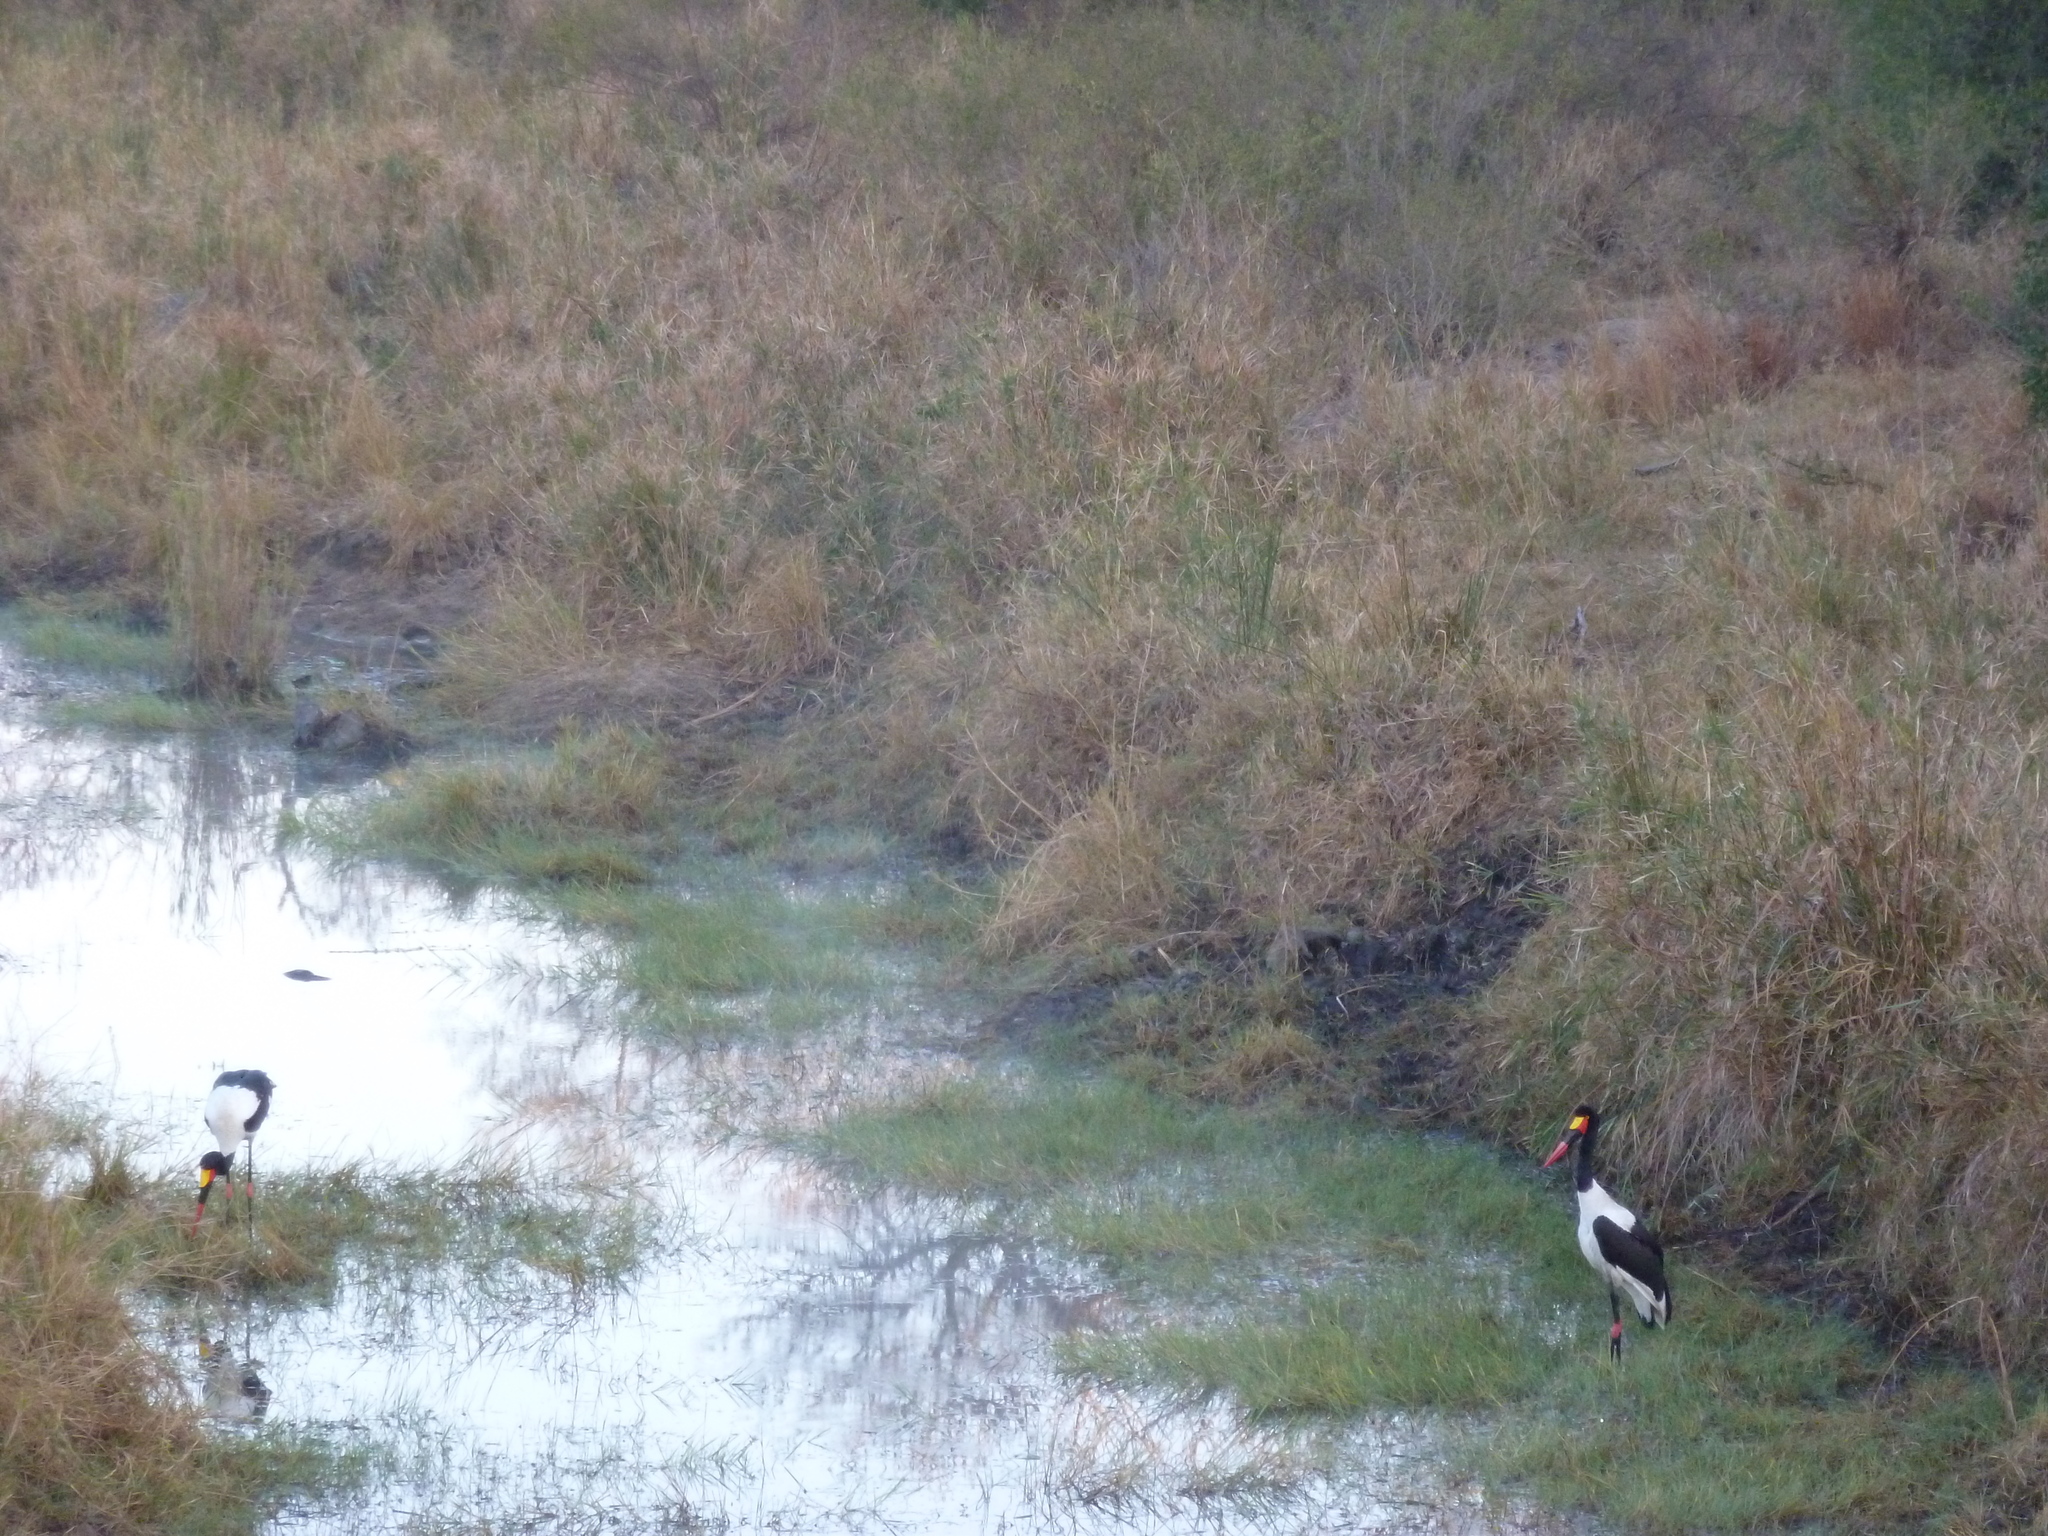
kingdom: Animalia
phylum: Chordata
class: Aves
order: Ciconiiformes
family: Ciconiidae
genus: Ephippiorhynchus
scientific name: Ephippiorhynchus senegalensis
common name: Saddle-billed stork
